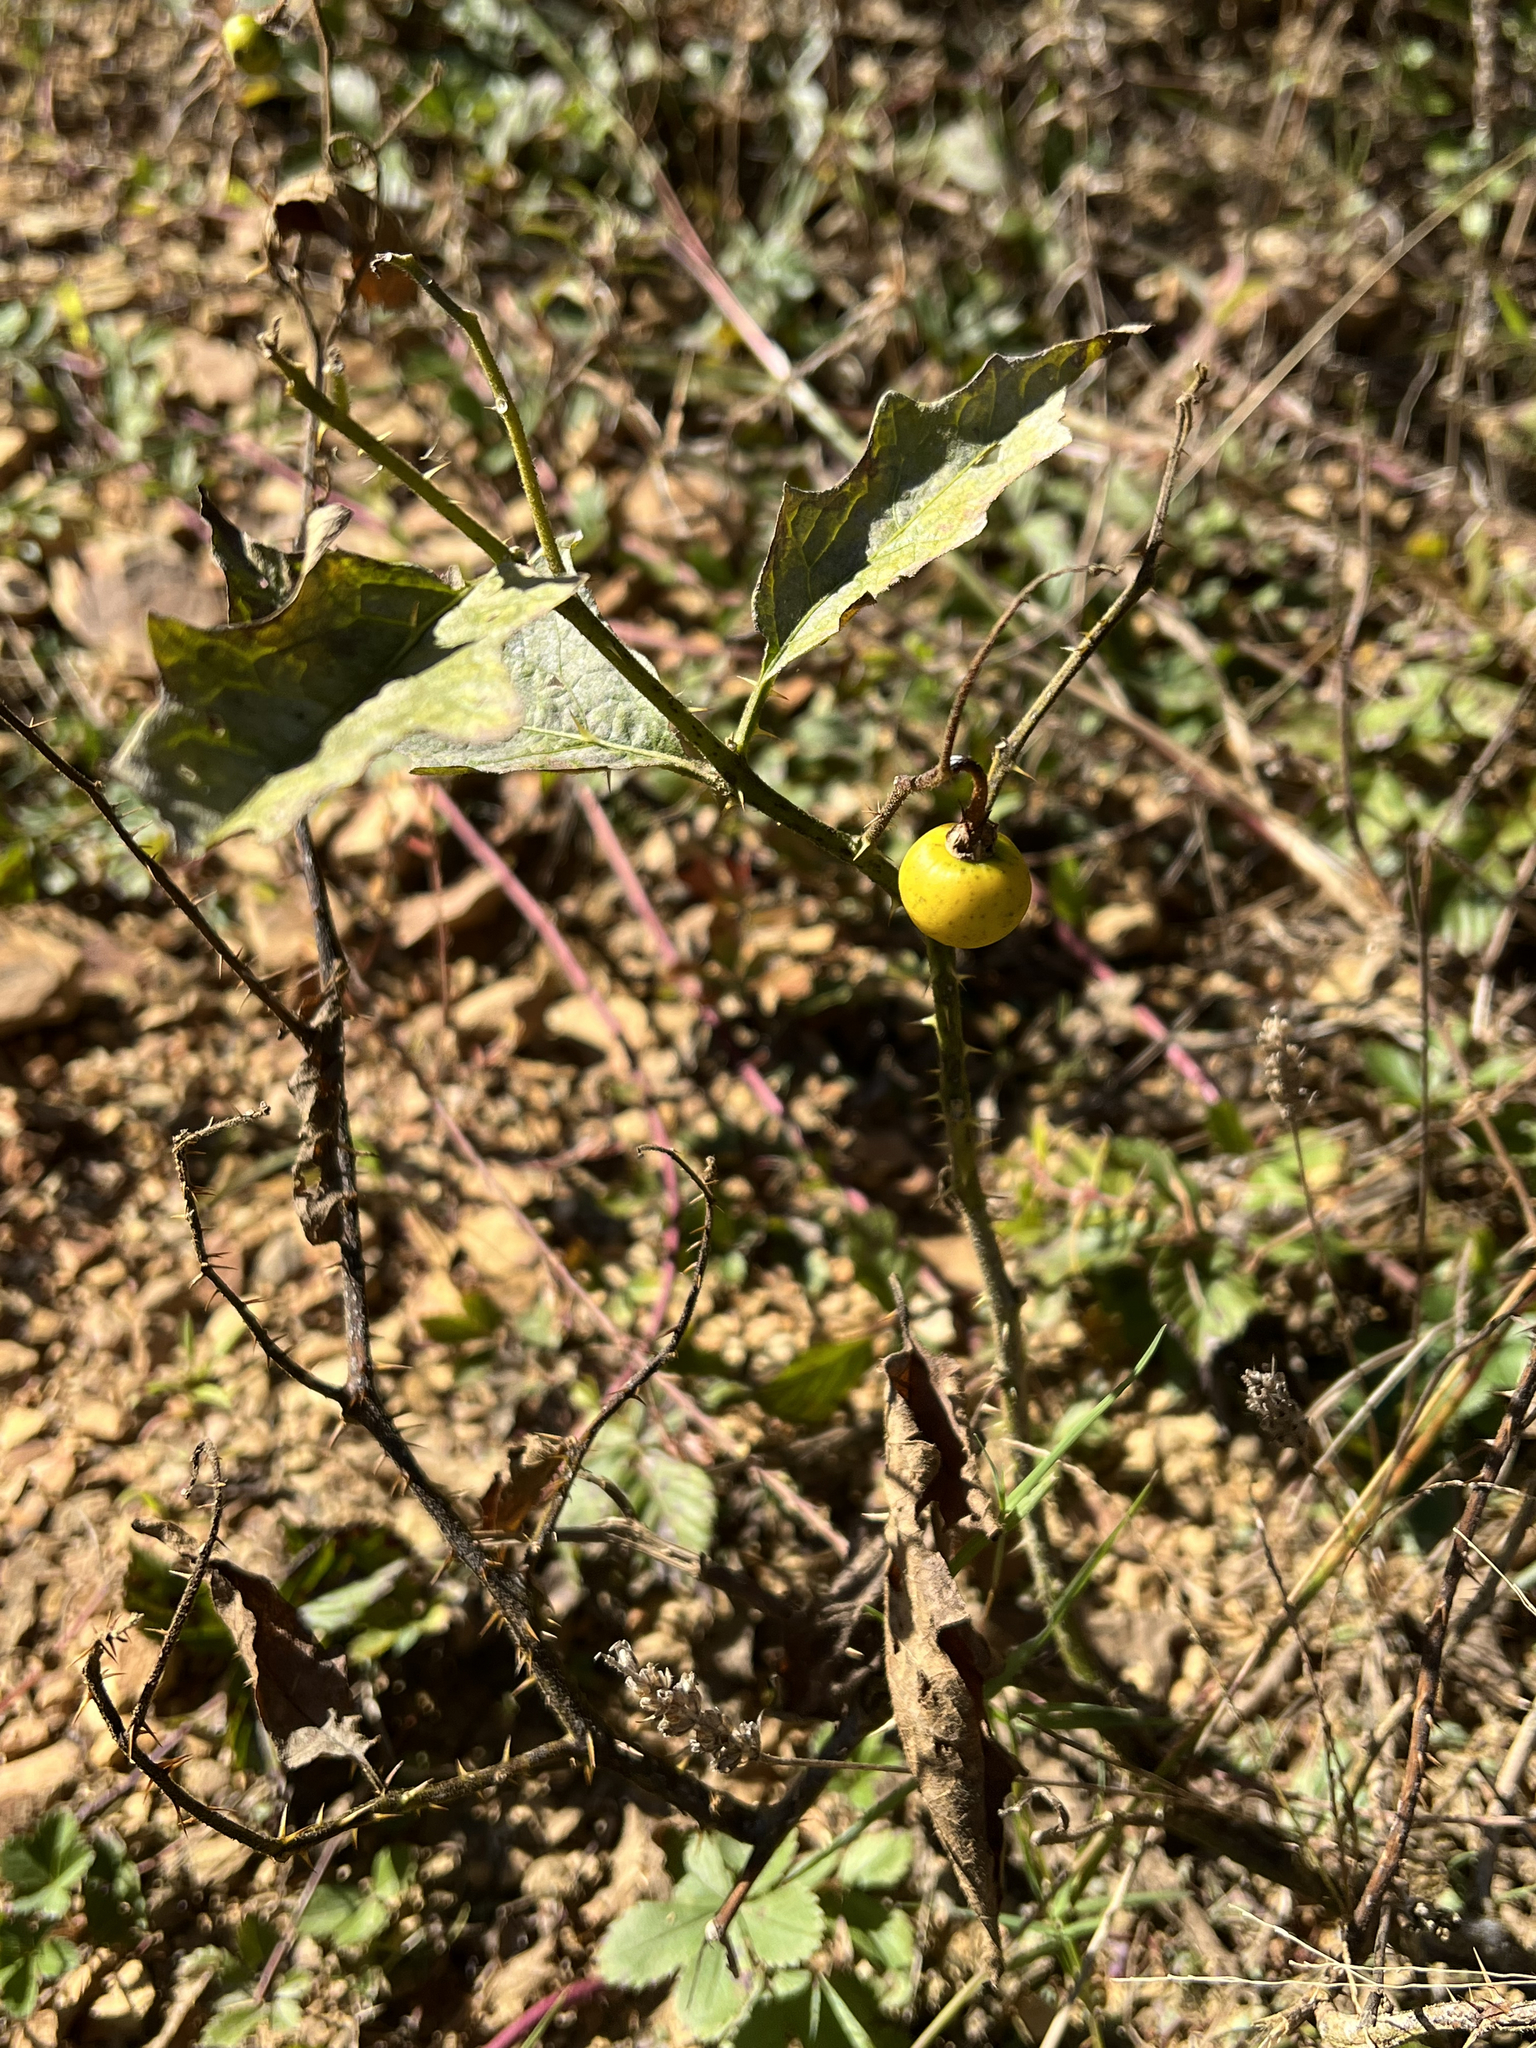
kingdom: Plantae
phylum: Tracheophyta
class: Magnoliopsida
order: Solanales
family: Solanaceae
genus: Solanum
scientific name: Solanum carolinense
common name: Horse-nettle
